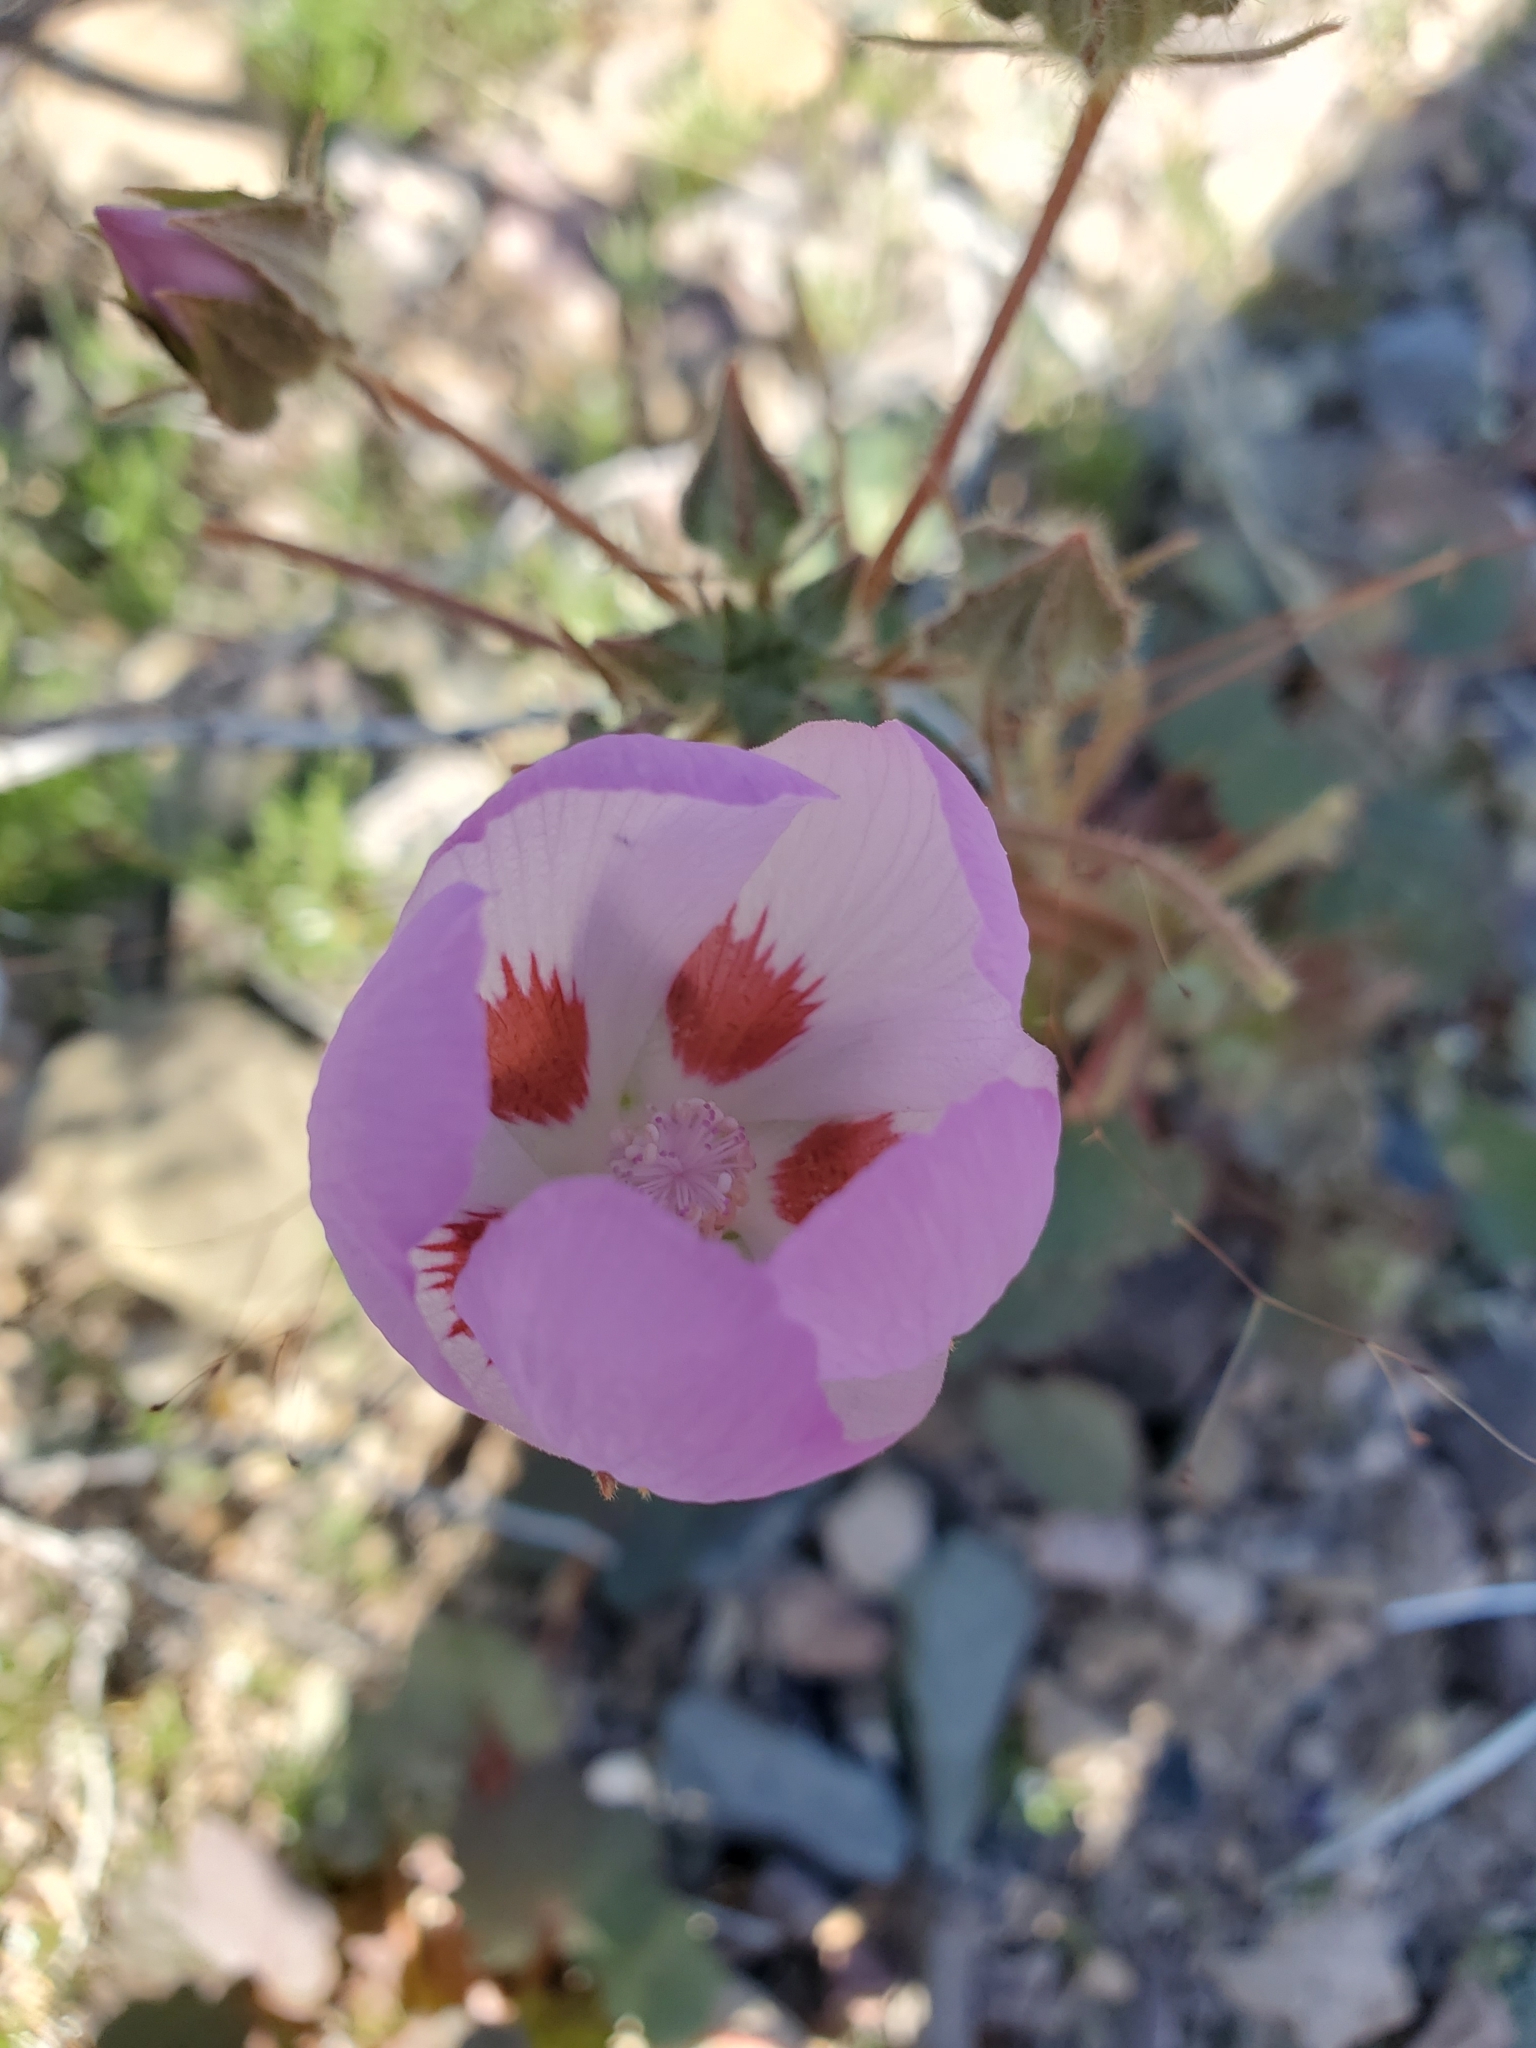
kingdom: Plantae
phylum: Tracheophyta
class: Magnoliopsida
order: Malvales
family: Malvaceae
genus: Eremalche
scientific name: Eremalche rotundifolia
